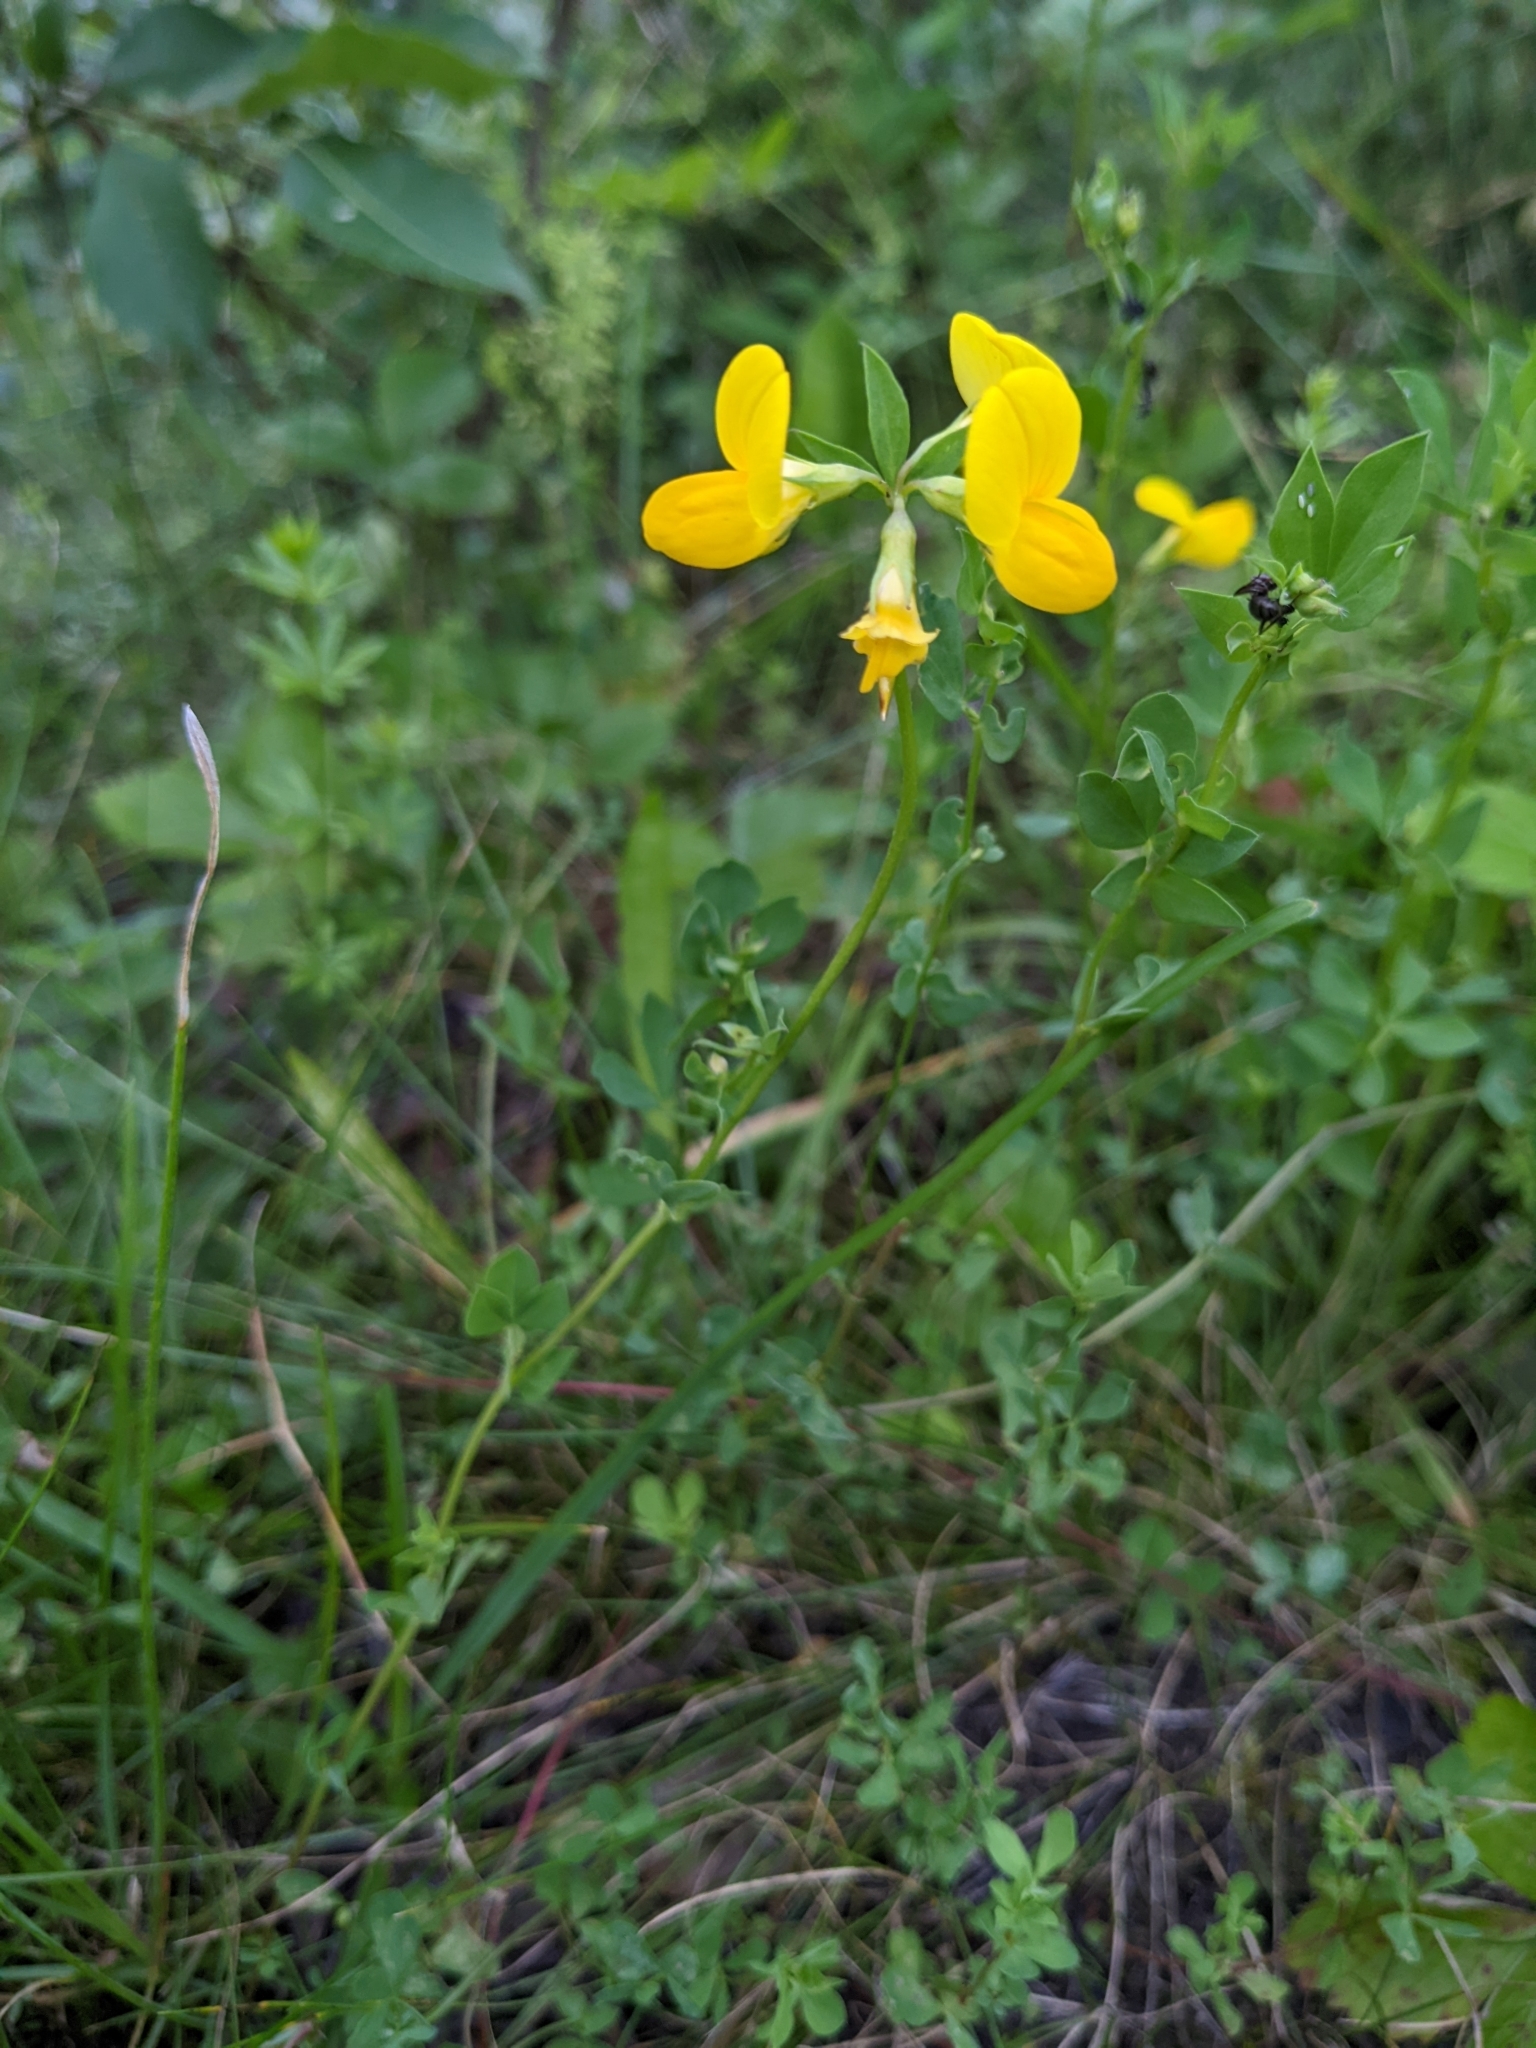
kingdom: Plantae
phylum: Tracheophyta
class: Magnoliopsida
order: Fabales
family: Fabaceae
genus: Lotus
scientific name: Lotus corniculatus
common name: Common bird's-foot-trefoil
